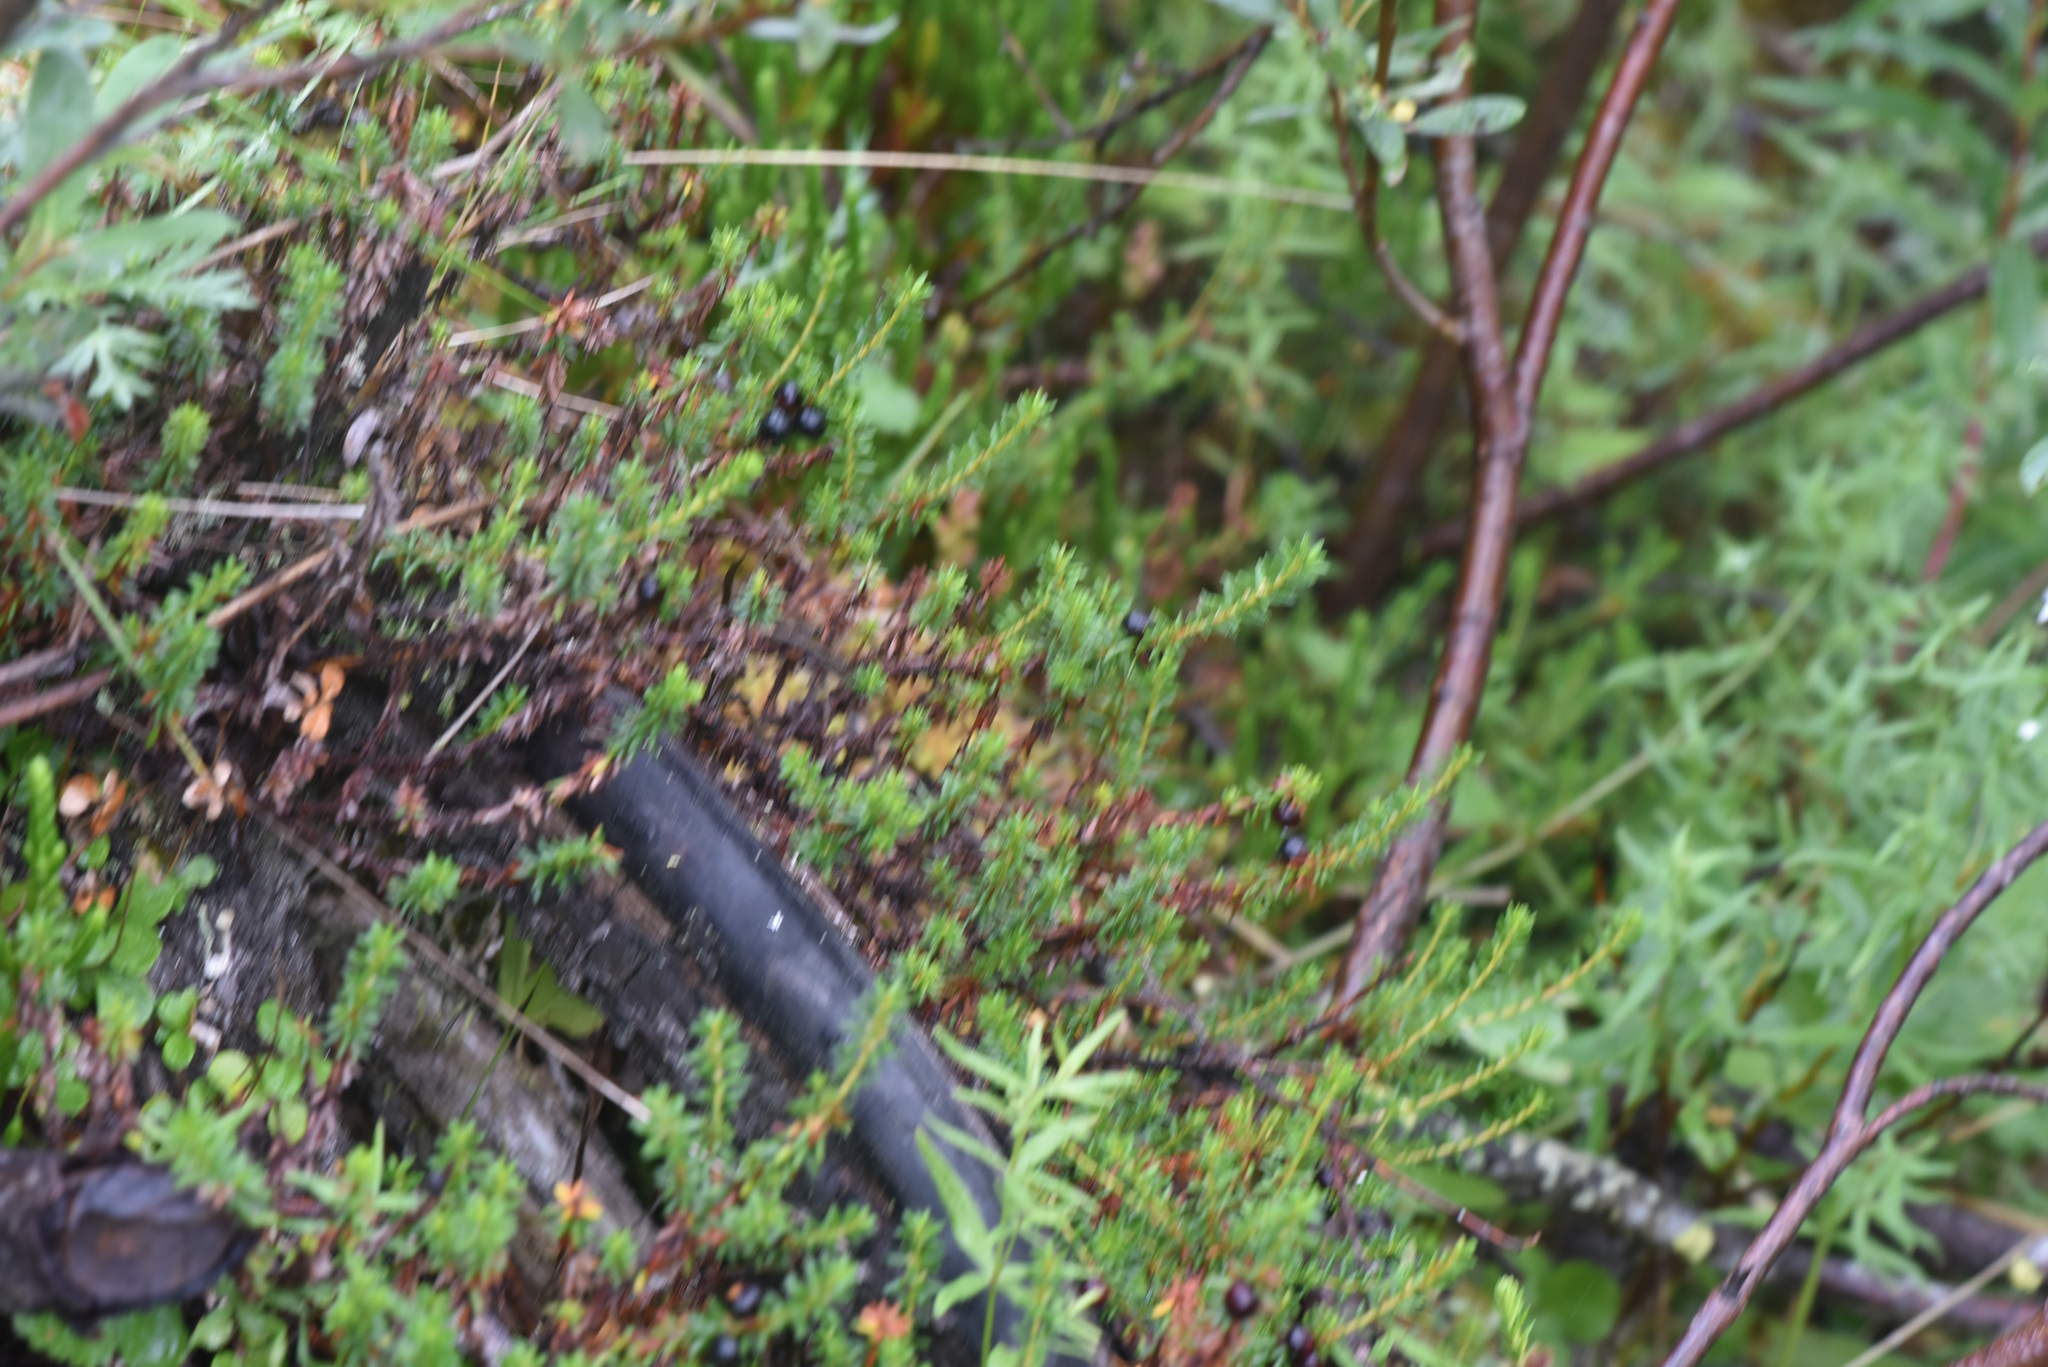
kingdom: Plantae
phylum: Tracheophyta
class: Magnoliopsida
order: Ericales
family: Ericaceae
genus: Empetrum
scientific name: Empetrum nigrum
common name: Black crowberry
